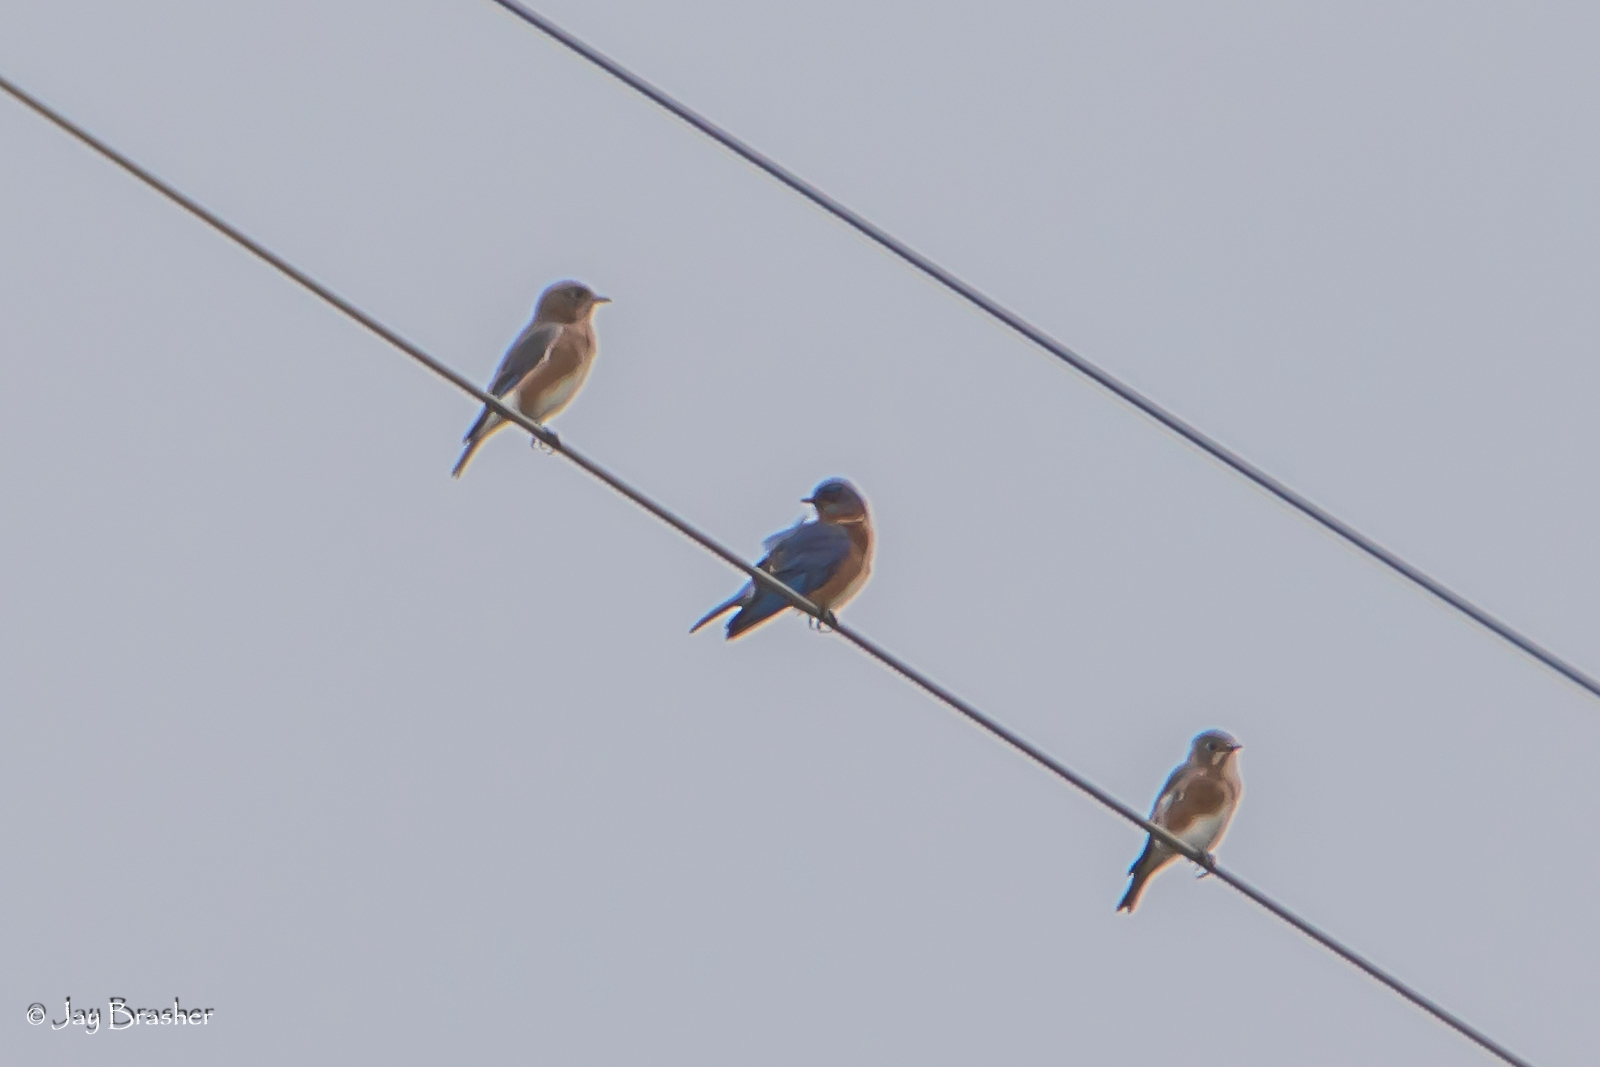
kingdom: Animalia
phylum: Chordata
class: Aves
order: Passeriformes
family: Turdidae
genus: Sialia
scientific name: Sialia sialis
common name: Eastern bluebird
